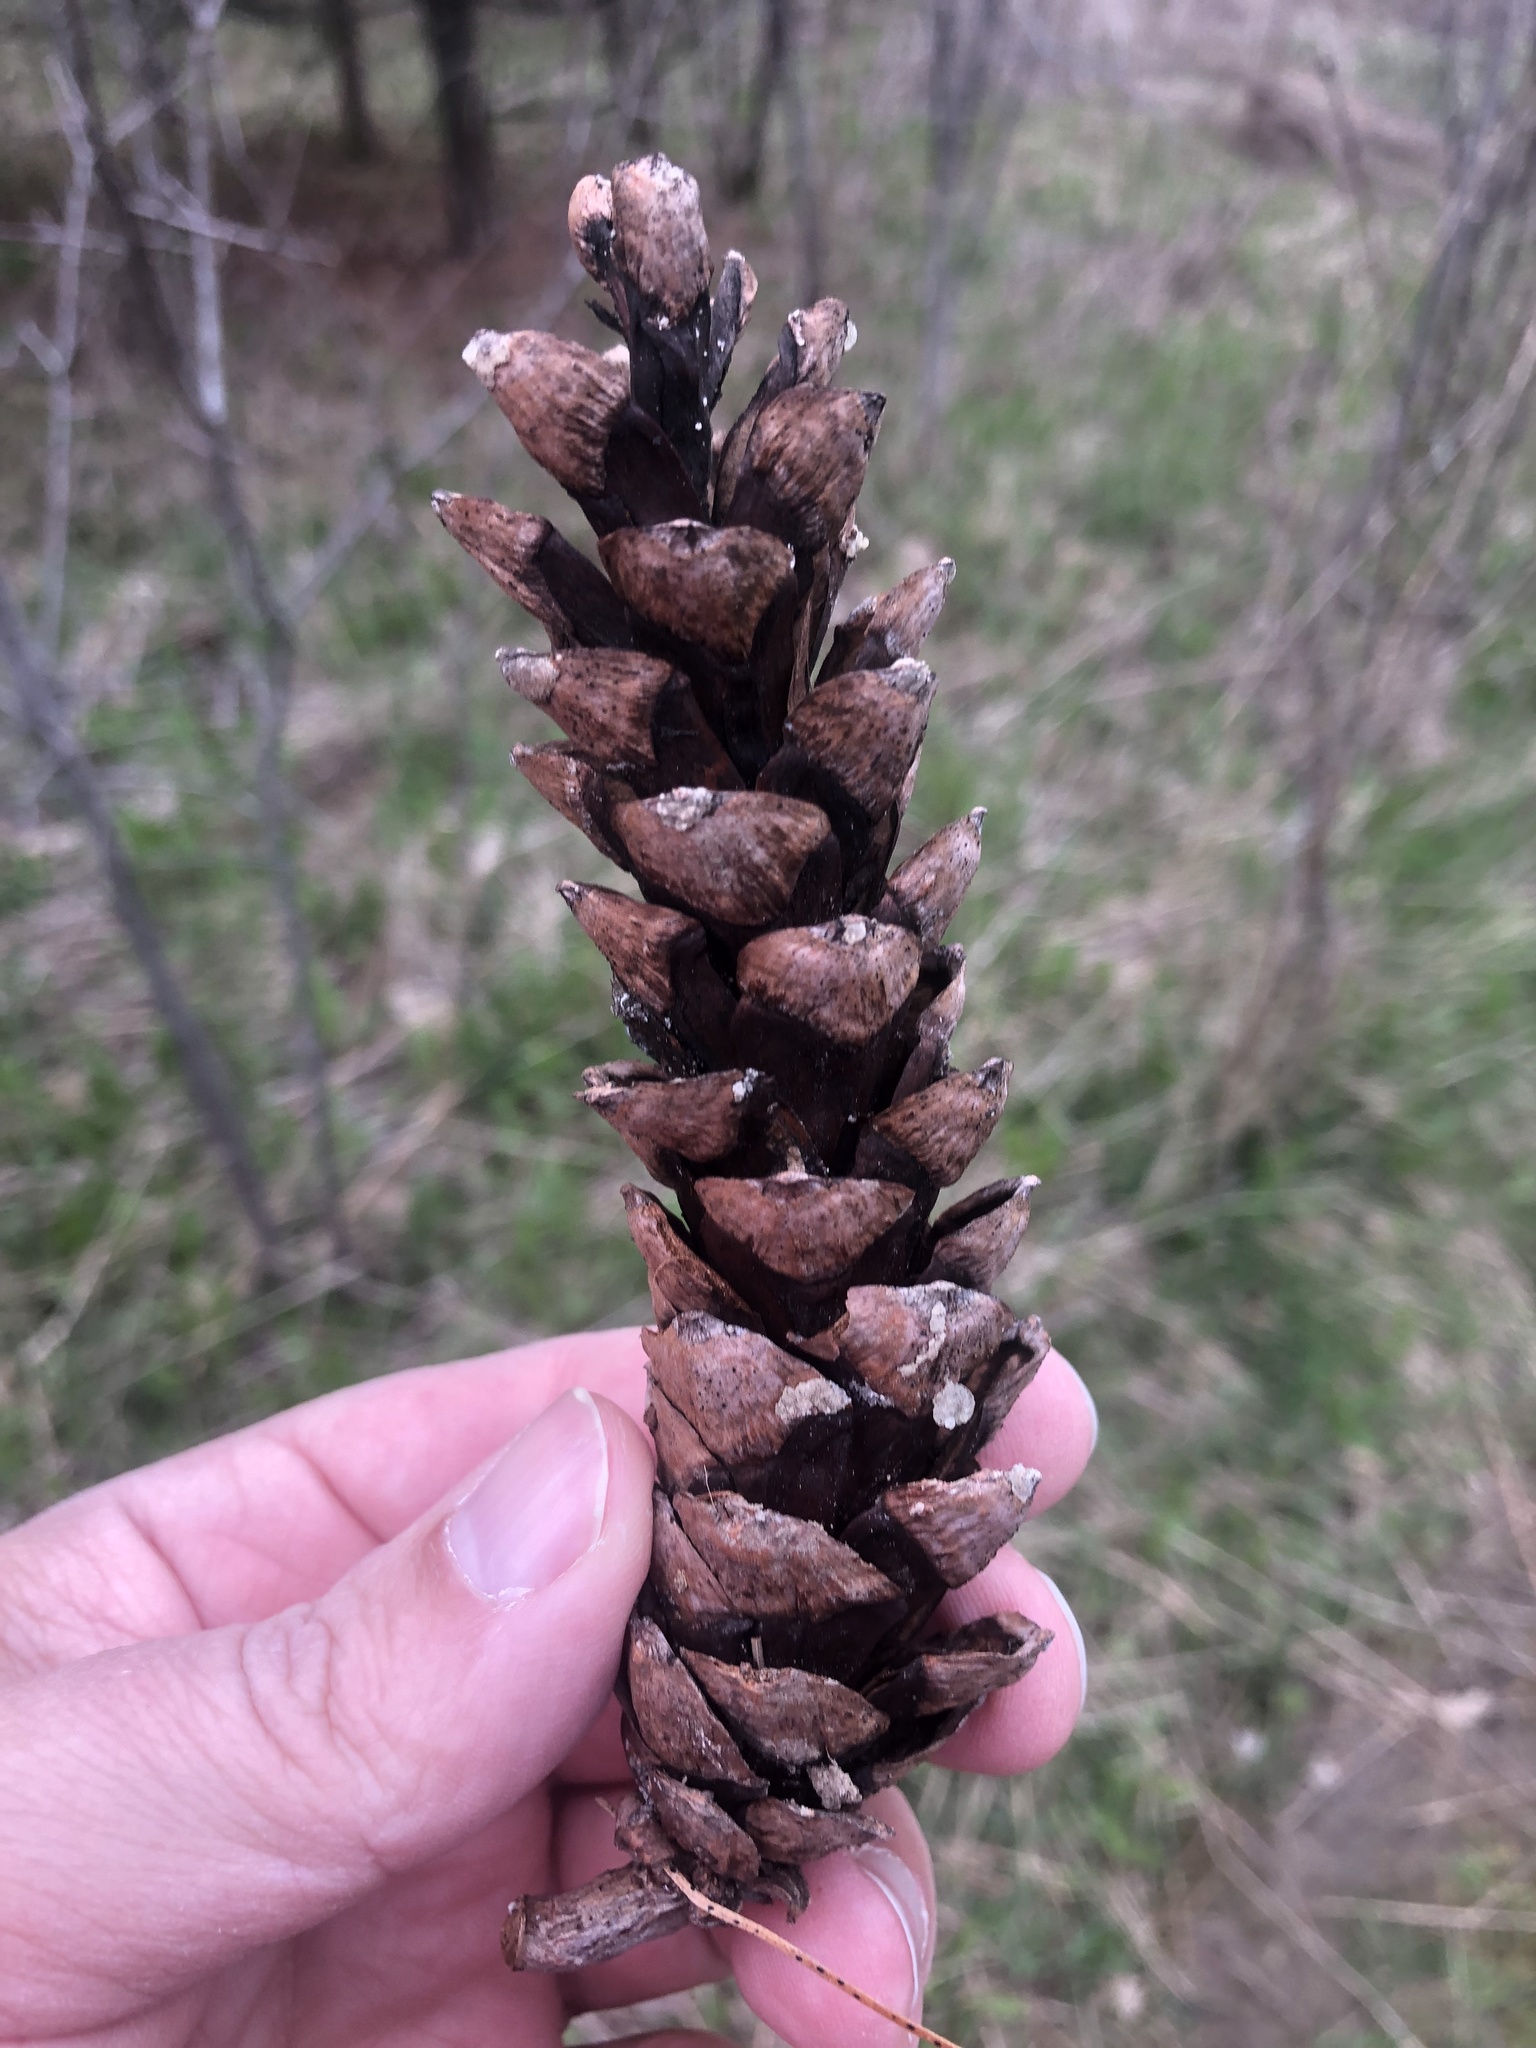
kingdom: Plantae
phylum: Tracheophyta
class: Pinopsida
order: Pinales
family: Pinaceae
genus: Pinus
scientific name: Pinus strobus
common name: Weymouth pine
